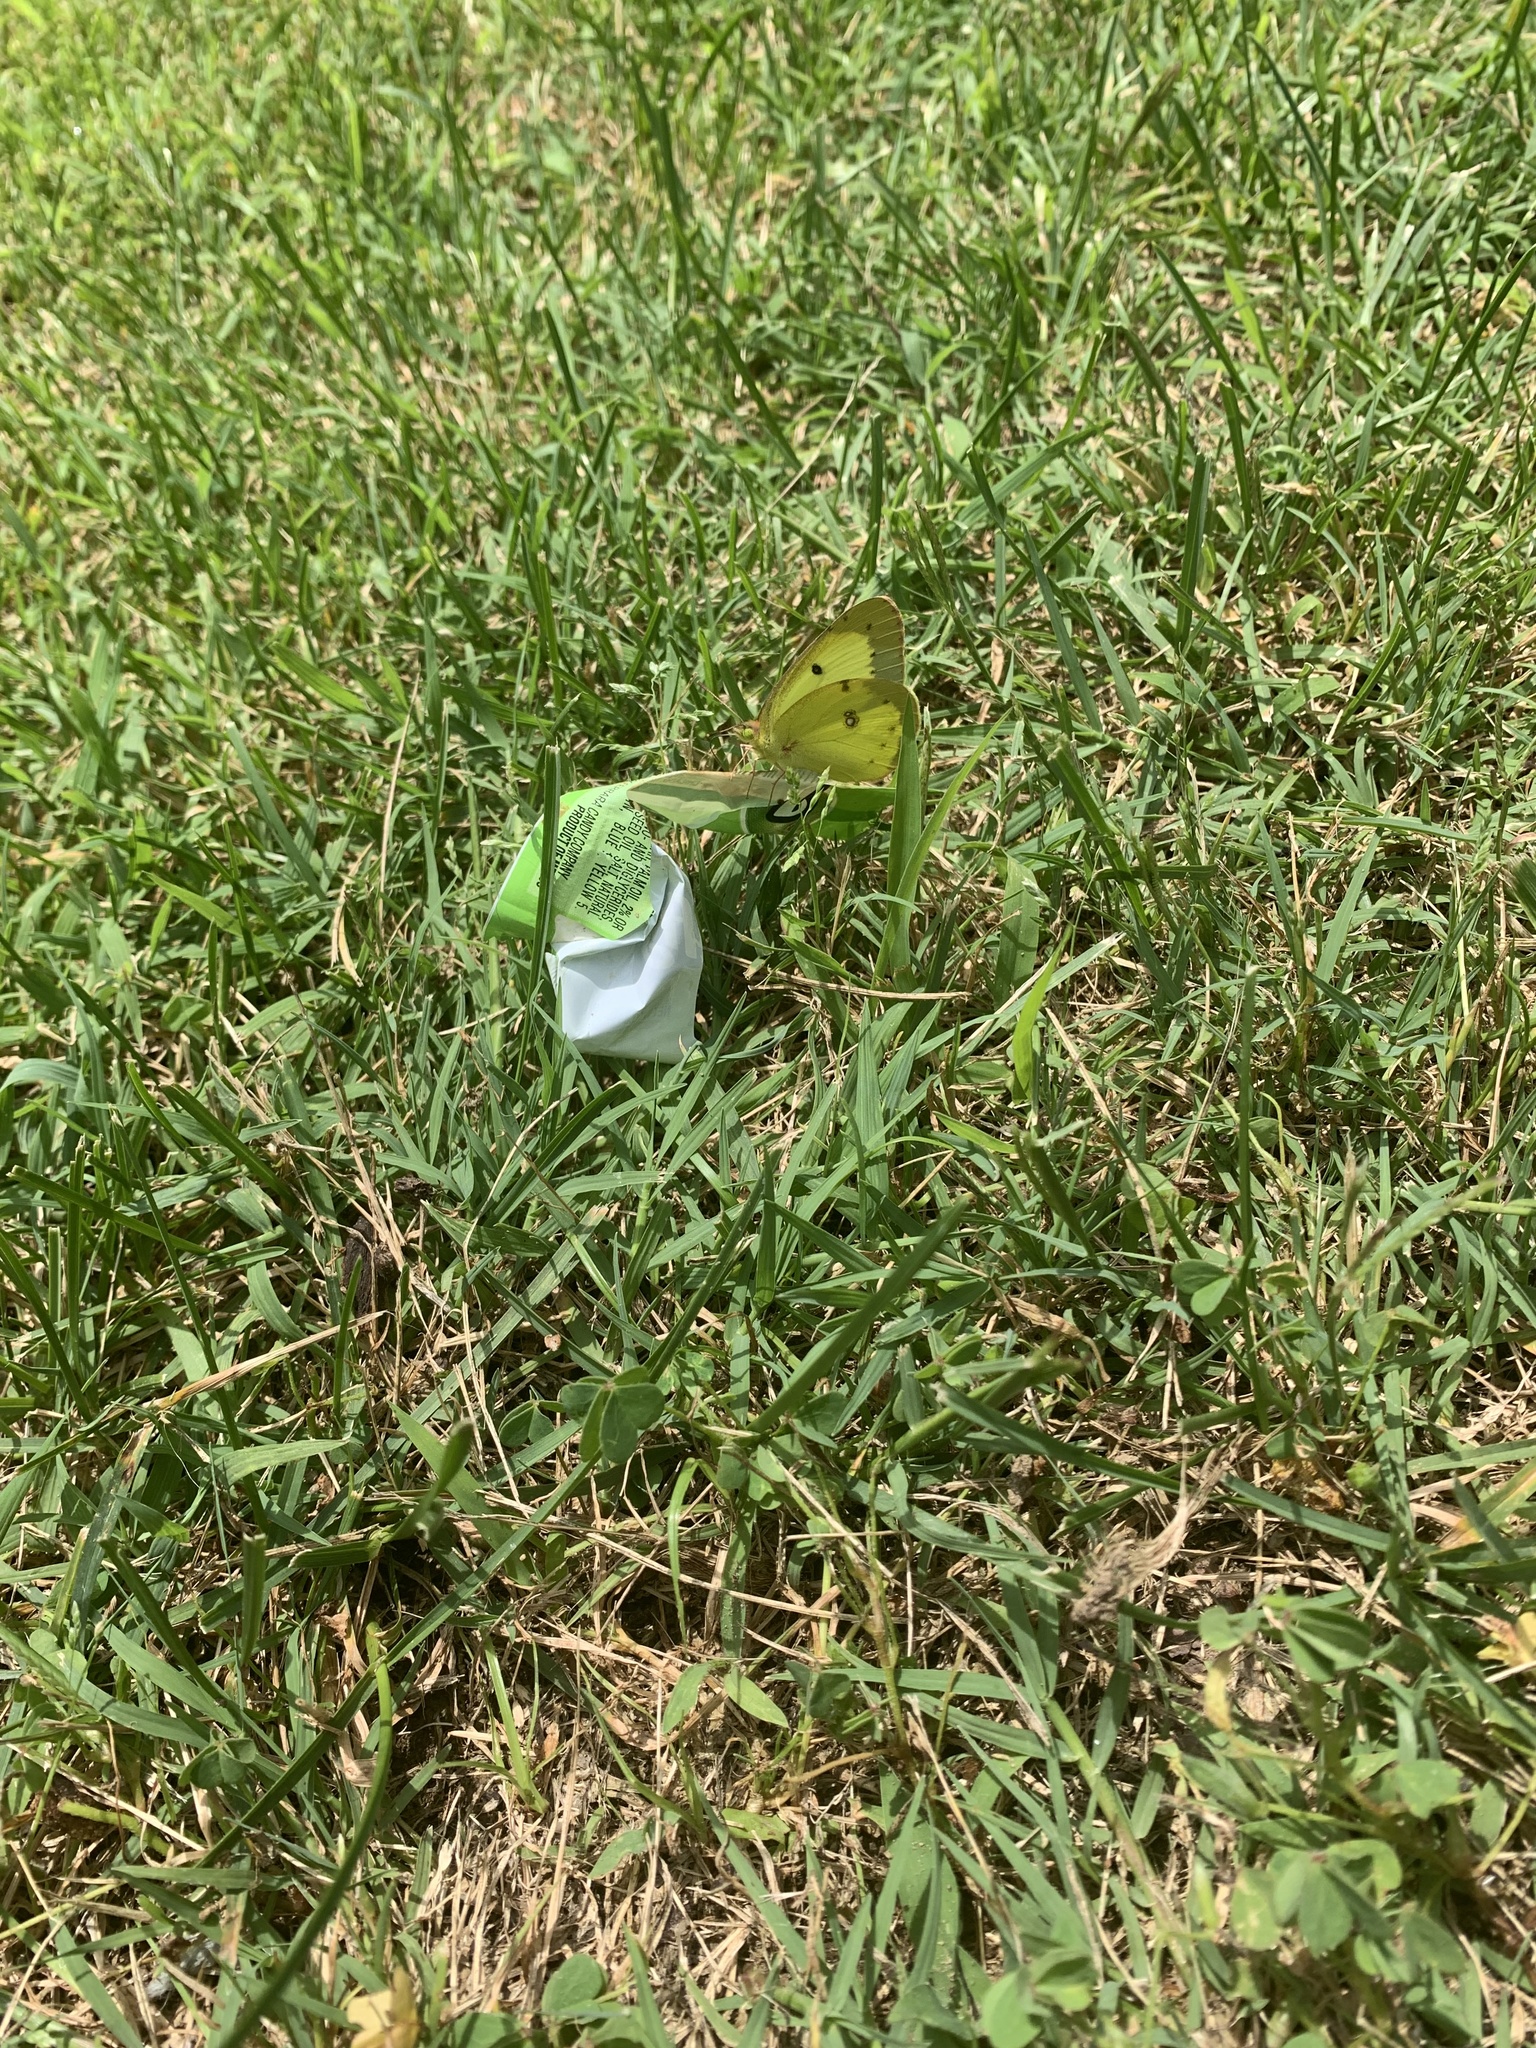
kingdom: Animalia
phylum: Arthropoda
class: Insecta
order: Lepidoptera
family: Pieridae
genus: Colias
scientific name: Colias philodice
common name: Clouded sulphur
